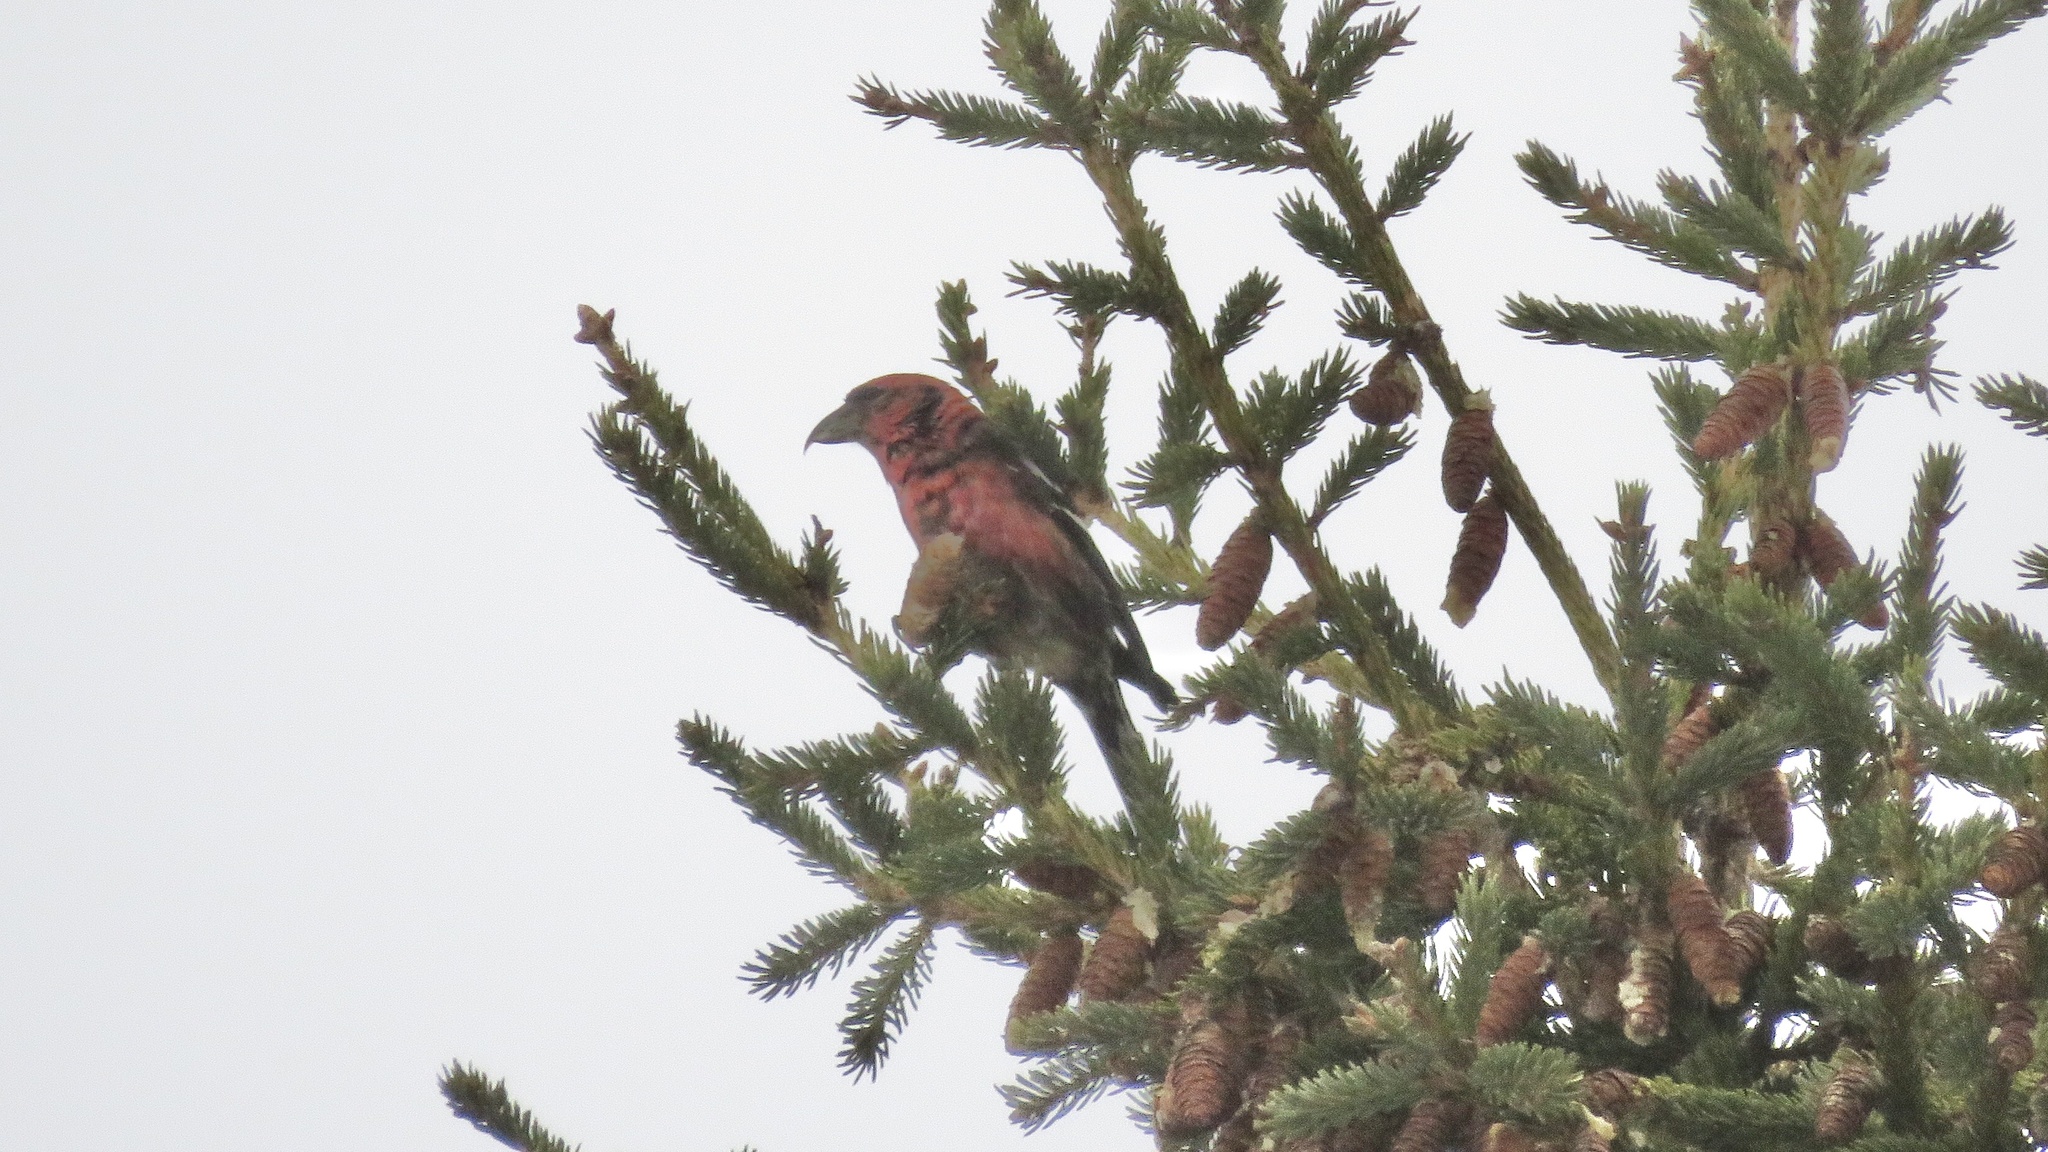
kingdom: Animalia
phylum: Chordata
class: Aves
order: Passeriformes
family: Fringillidae
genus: Loxia
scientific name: Loxia leucoptera
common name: Two-barred crossbill
